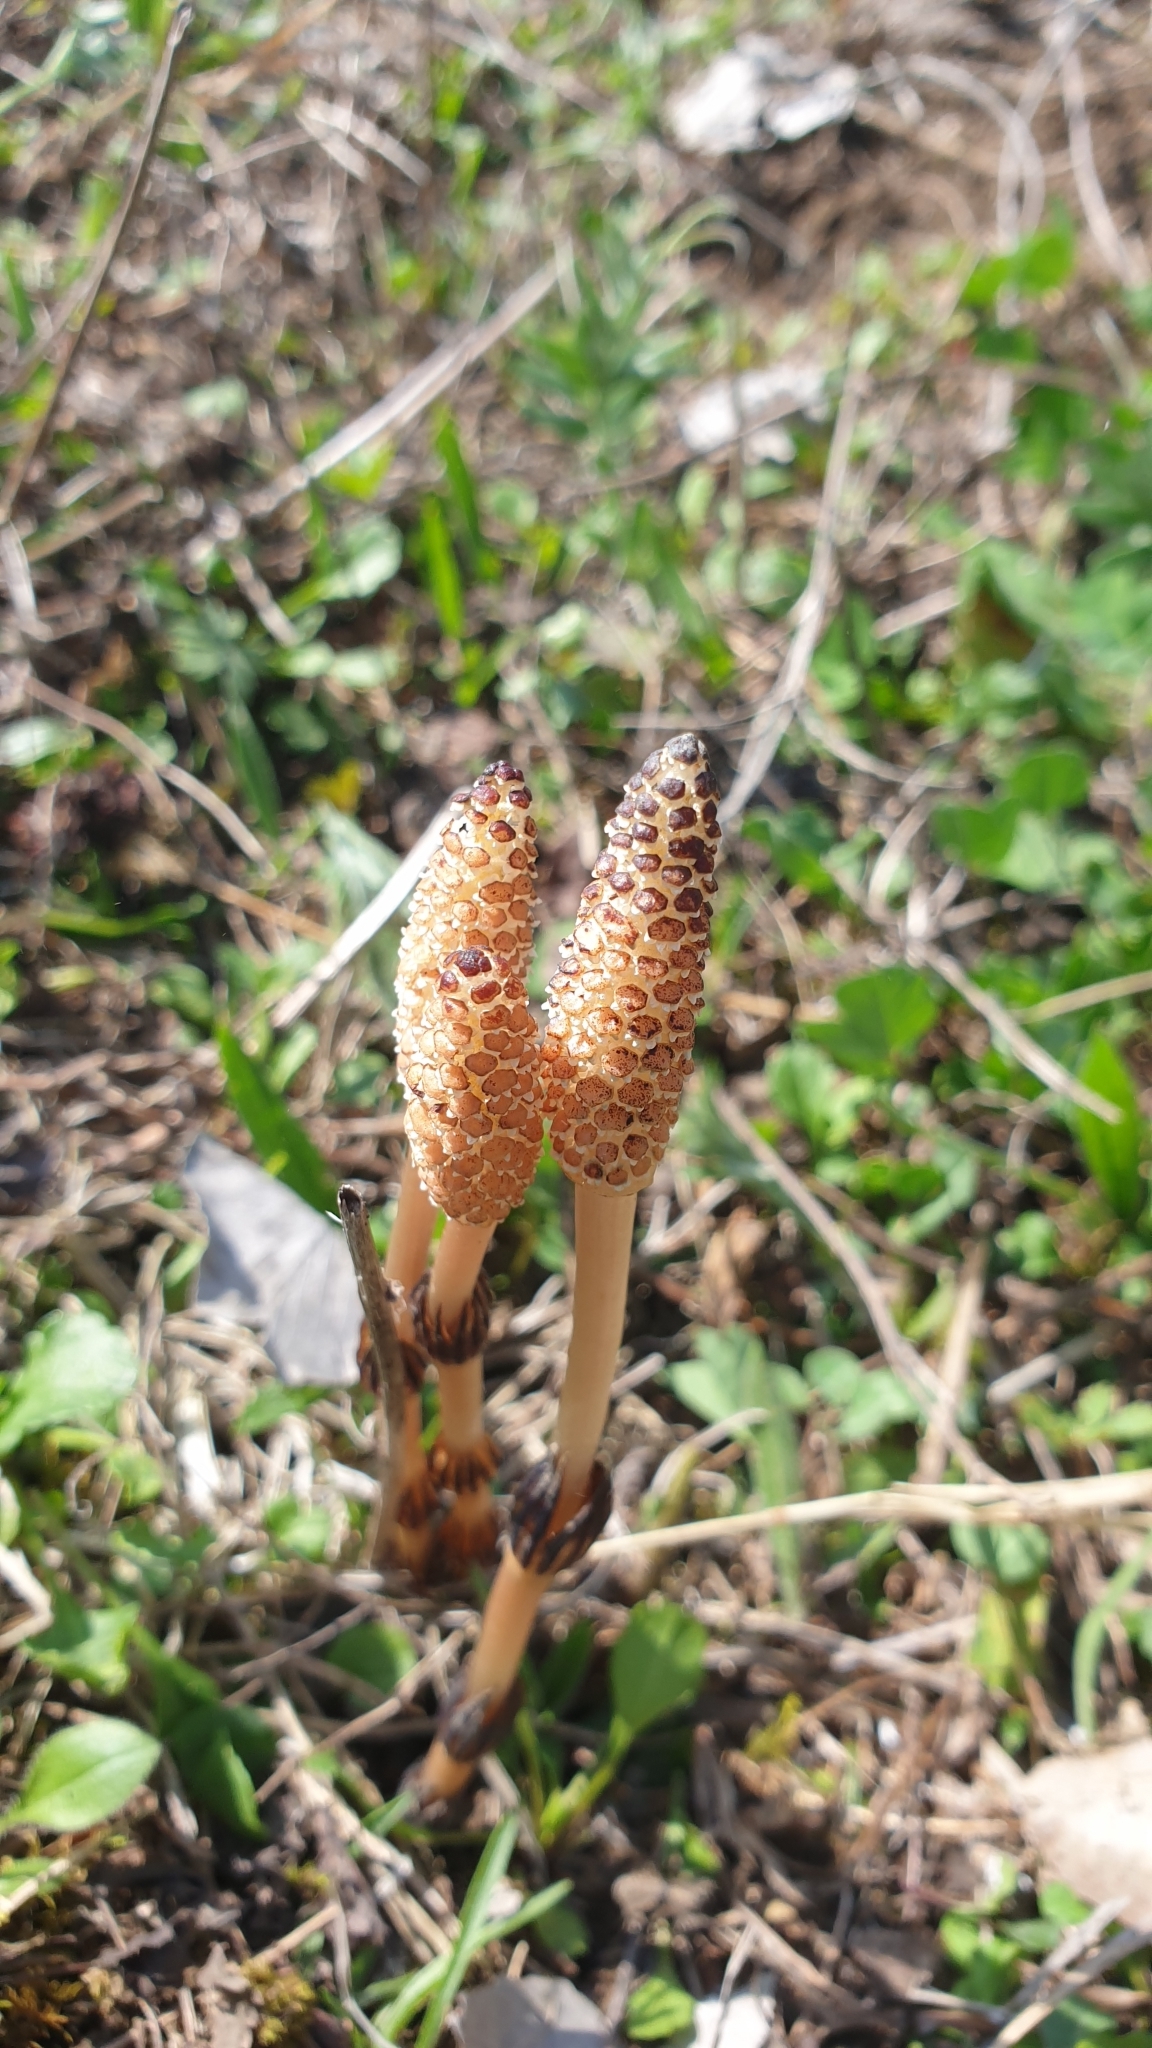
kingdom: Plantae
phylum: Tracheophyta
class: Polypodiopsida
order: Equisetales
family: Equisetaceae
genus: Equisetum
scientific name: Equisetum arvense
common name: Field horsetail
